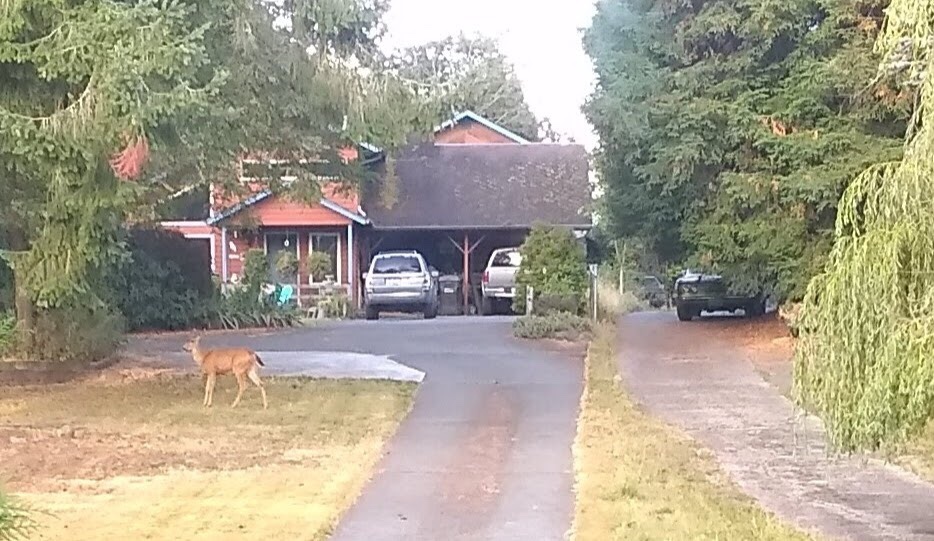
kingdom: Animalia
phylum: Chordata
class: Mammalia
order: Artiodactyla
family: Cervidae
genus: Odocoileus
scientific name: Odocoileus hemionus
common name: Mule deer
